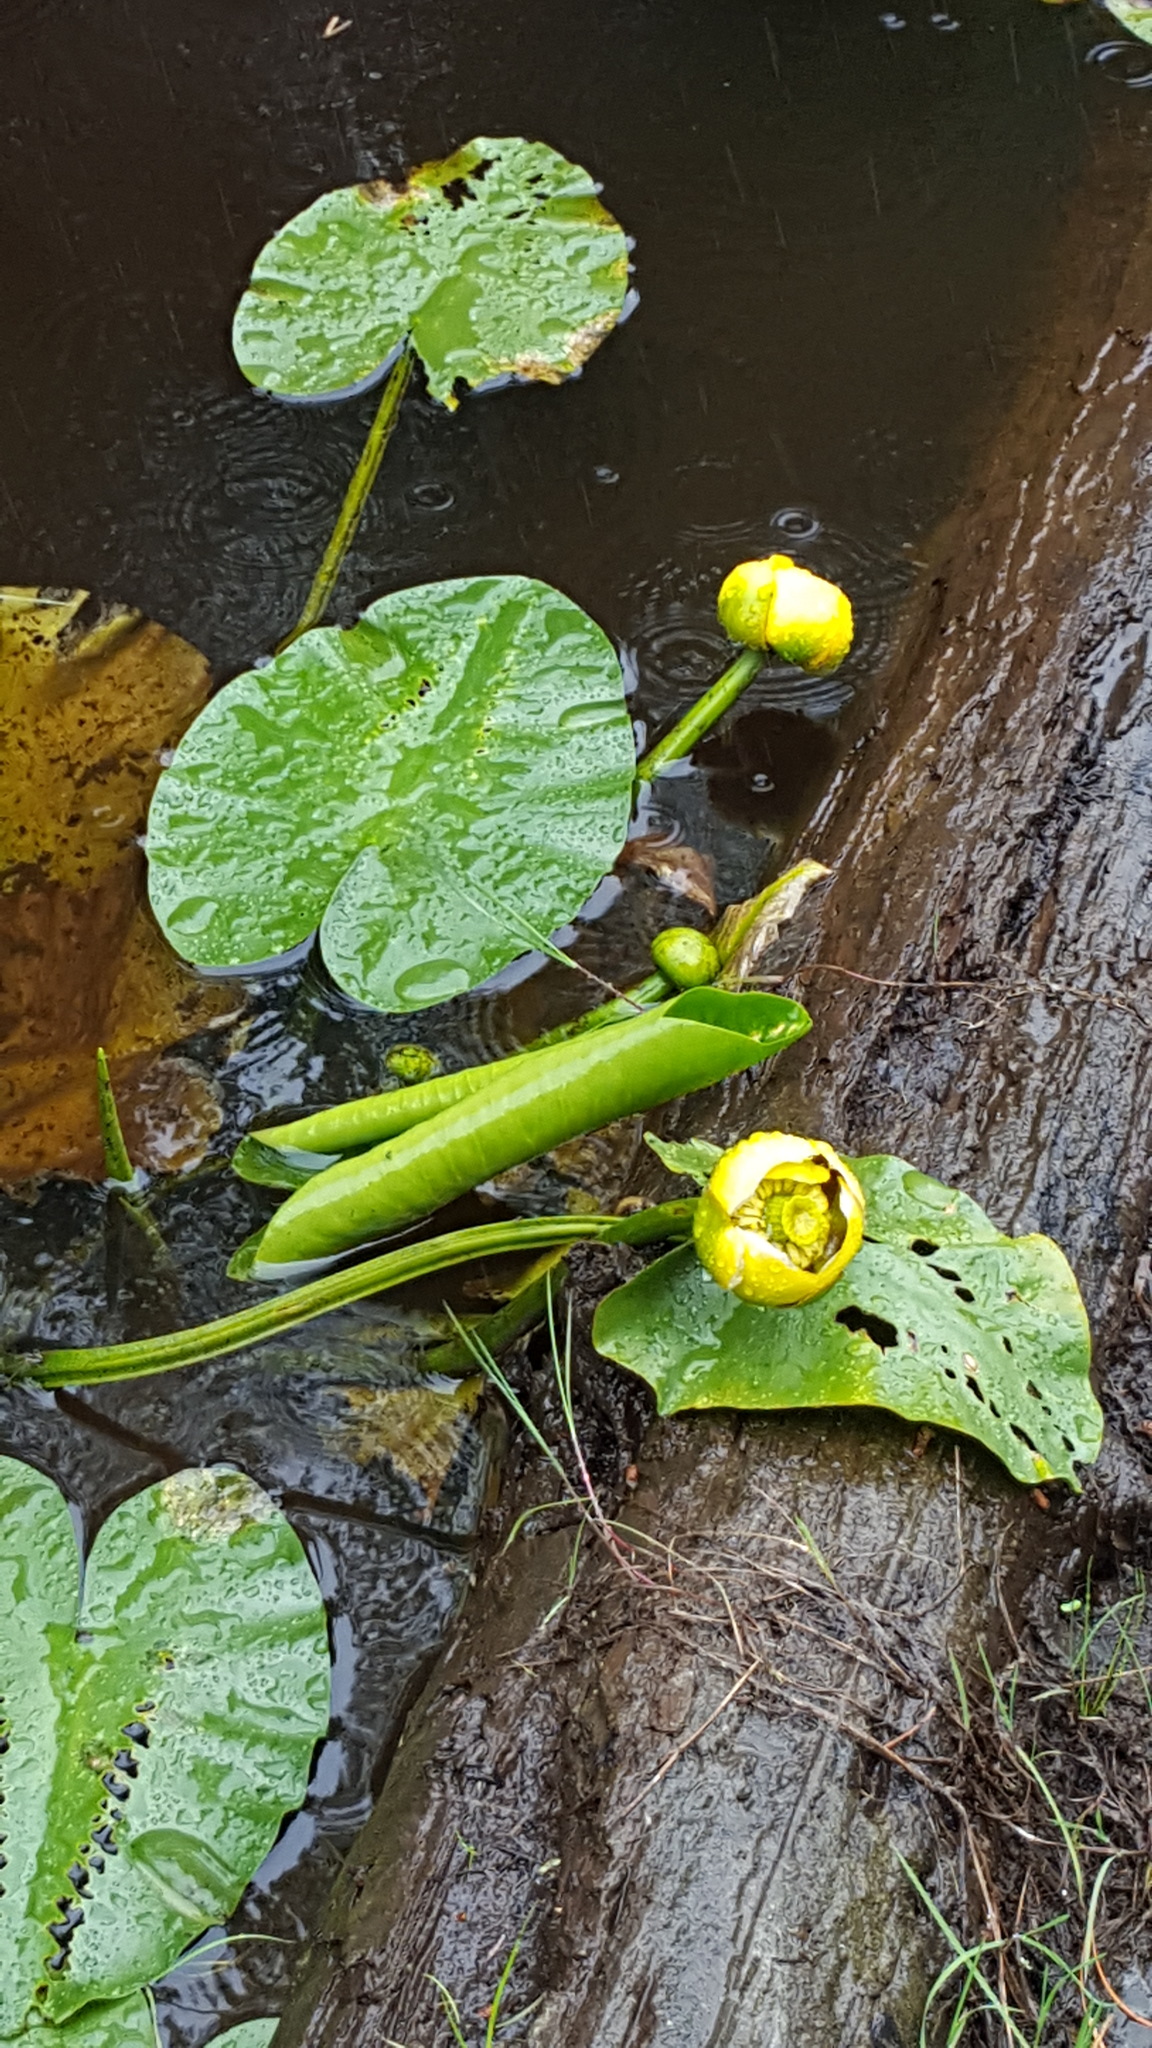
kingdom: Plantae
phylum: Tracheophyta
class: Magnoliopsida
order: Nymphaeales
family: Nymphaeaceae
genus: Nuphar
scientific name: Nuphar variegata
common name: Beaver-root
